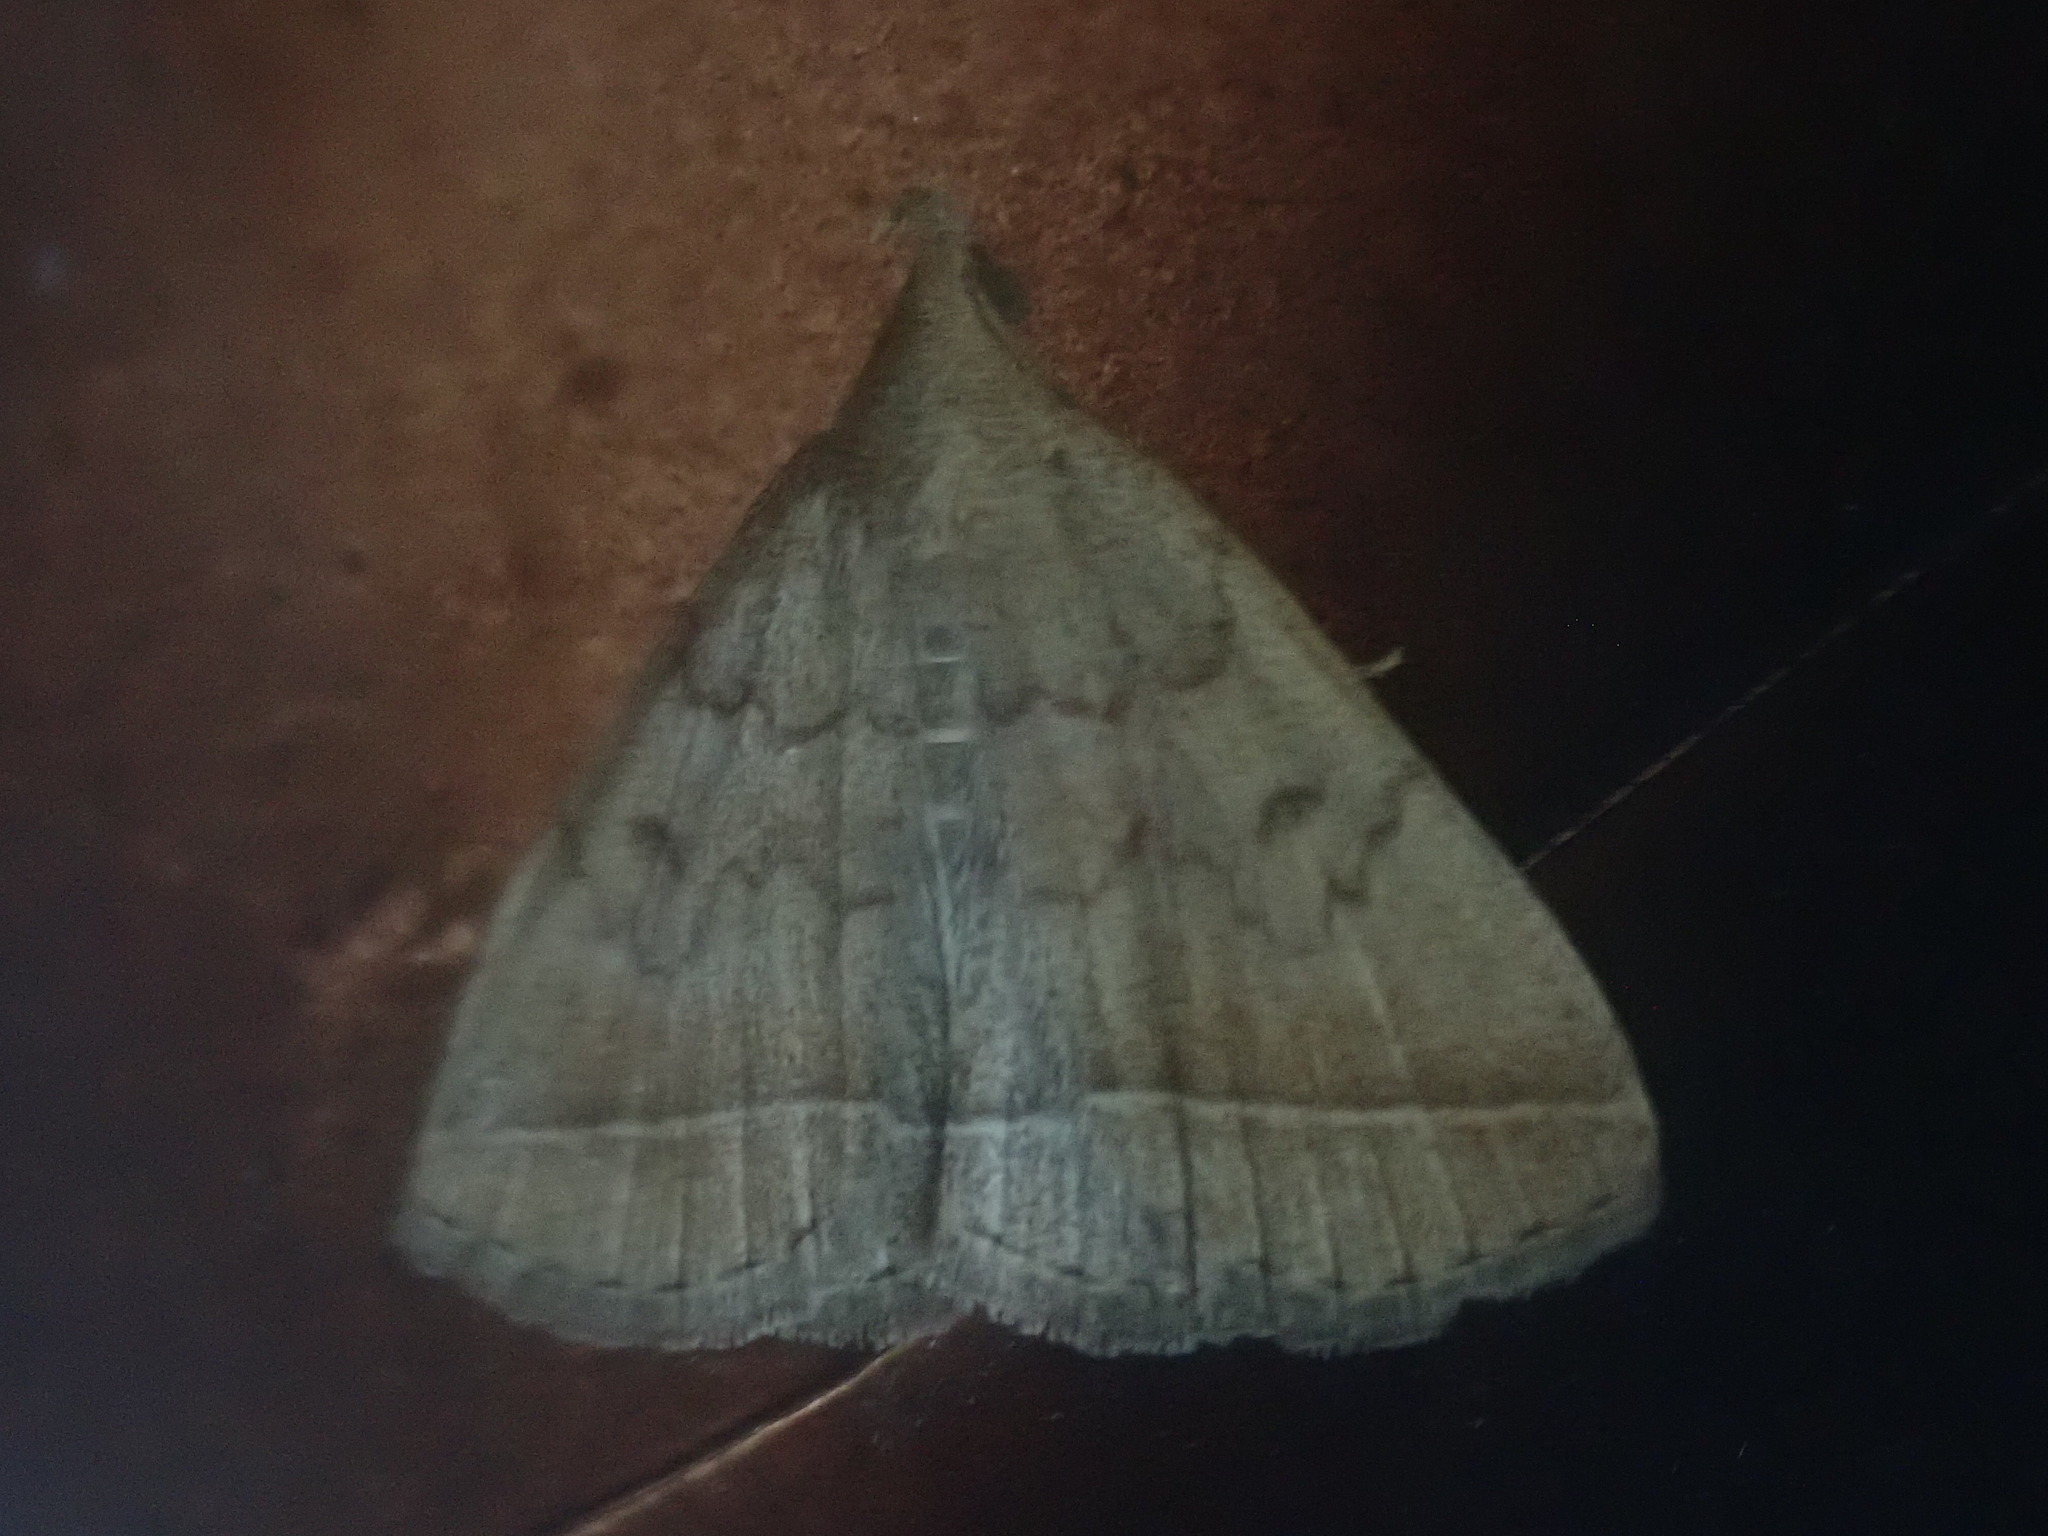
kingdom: Animalia
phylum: Arthropoda
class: Insecta
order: Lepidoptera
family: Erebidae
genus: Zanclognatha
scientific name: Zanclognatha jacchusalis
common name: Yellowish zanclognatha
